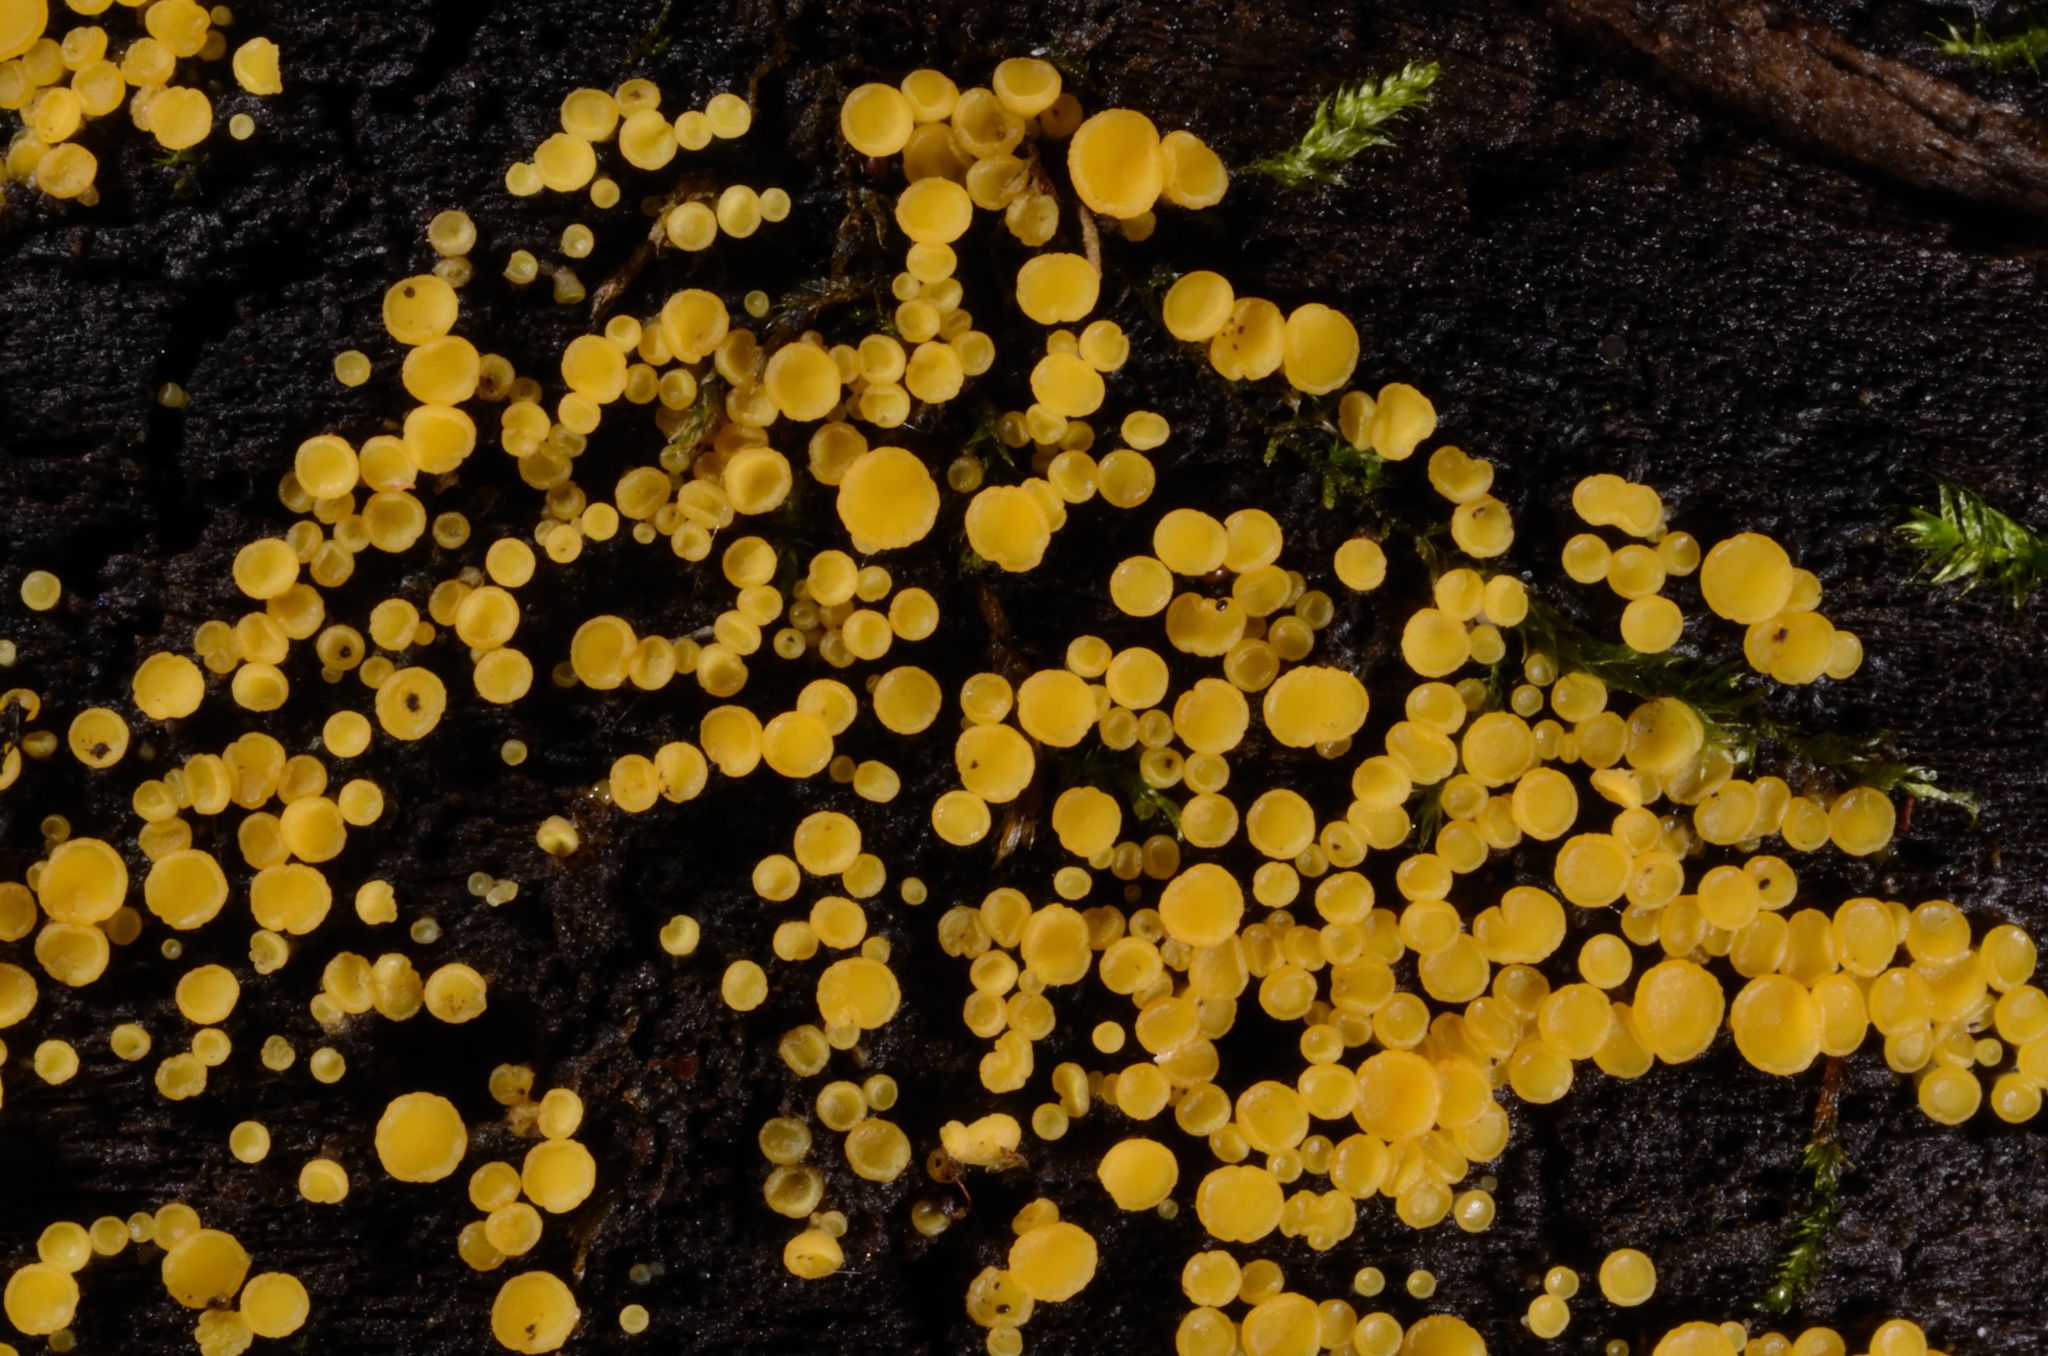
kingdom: Fungi
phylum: Ascomycota
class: Leotiomycetes
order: Helotiales
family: Pezizellaceae
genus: Calycina
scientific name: Calycina citrina
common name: Yellow fairy cups
